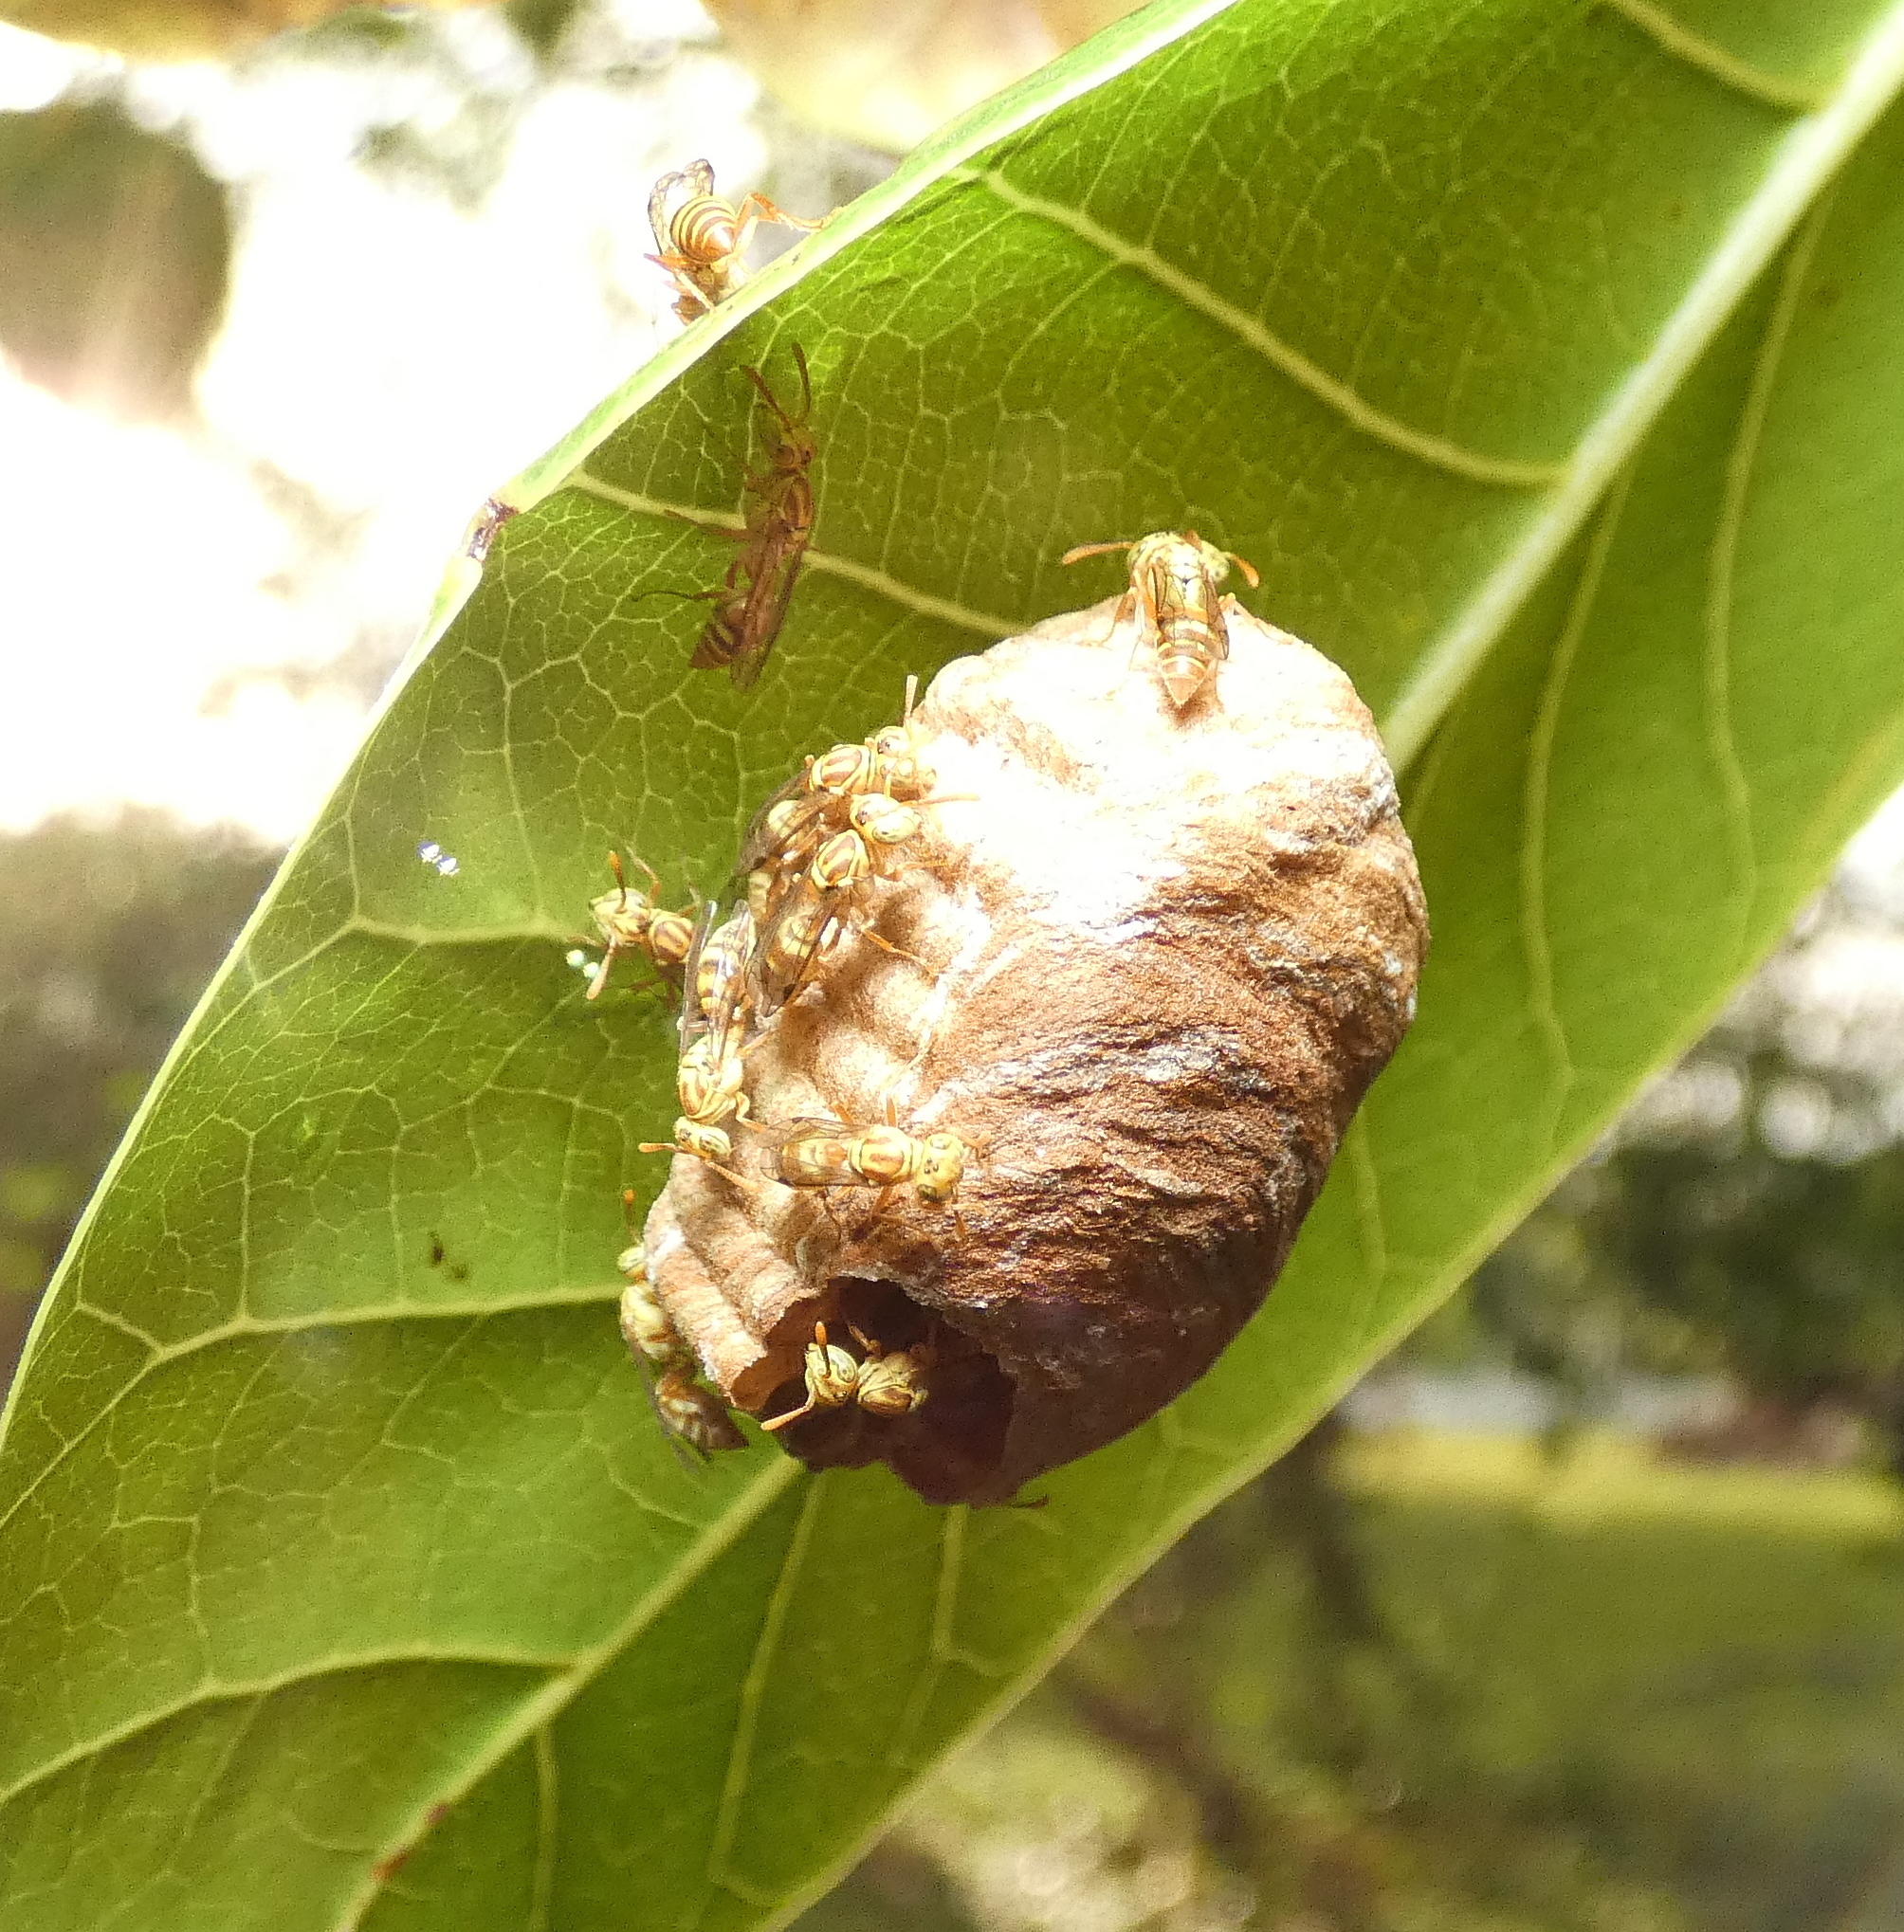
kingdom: Animalia
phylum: Arthropoda
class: Insecta
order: Hymenoptera
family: Vespidae
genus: Protopolybia
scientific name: Protopolybia potiguara
